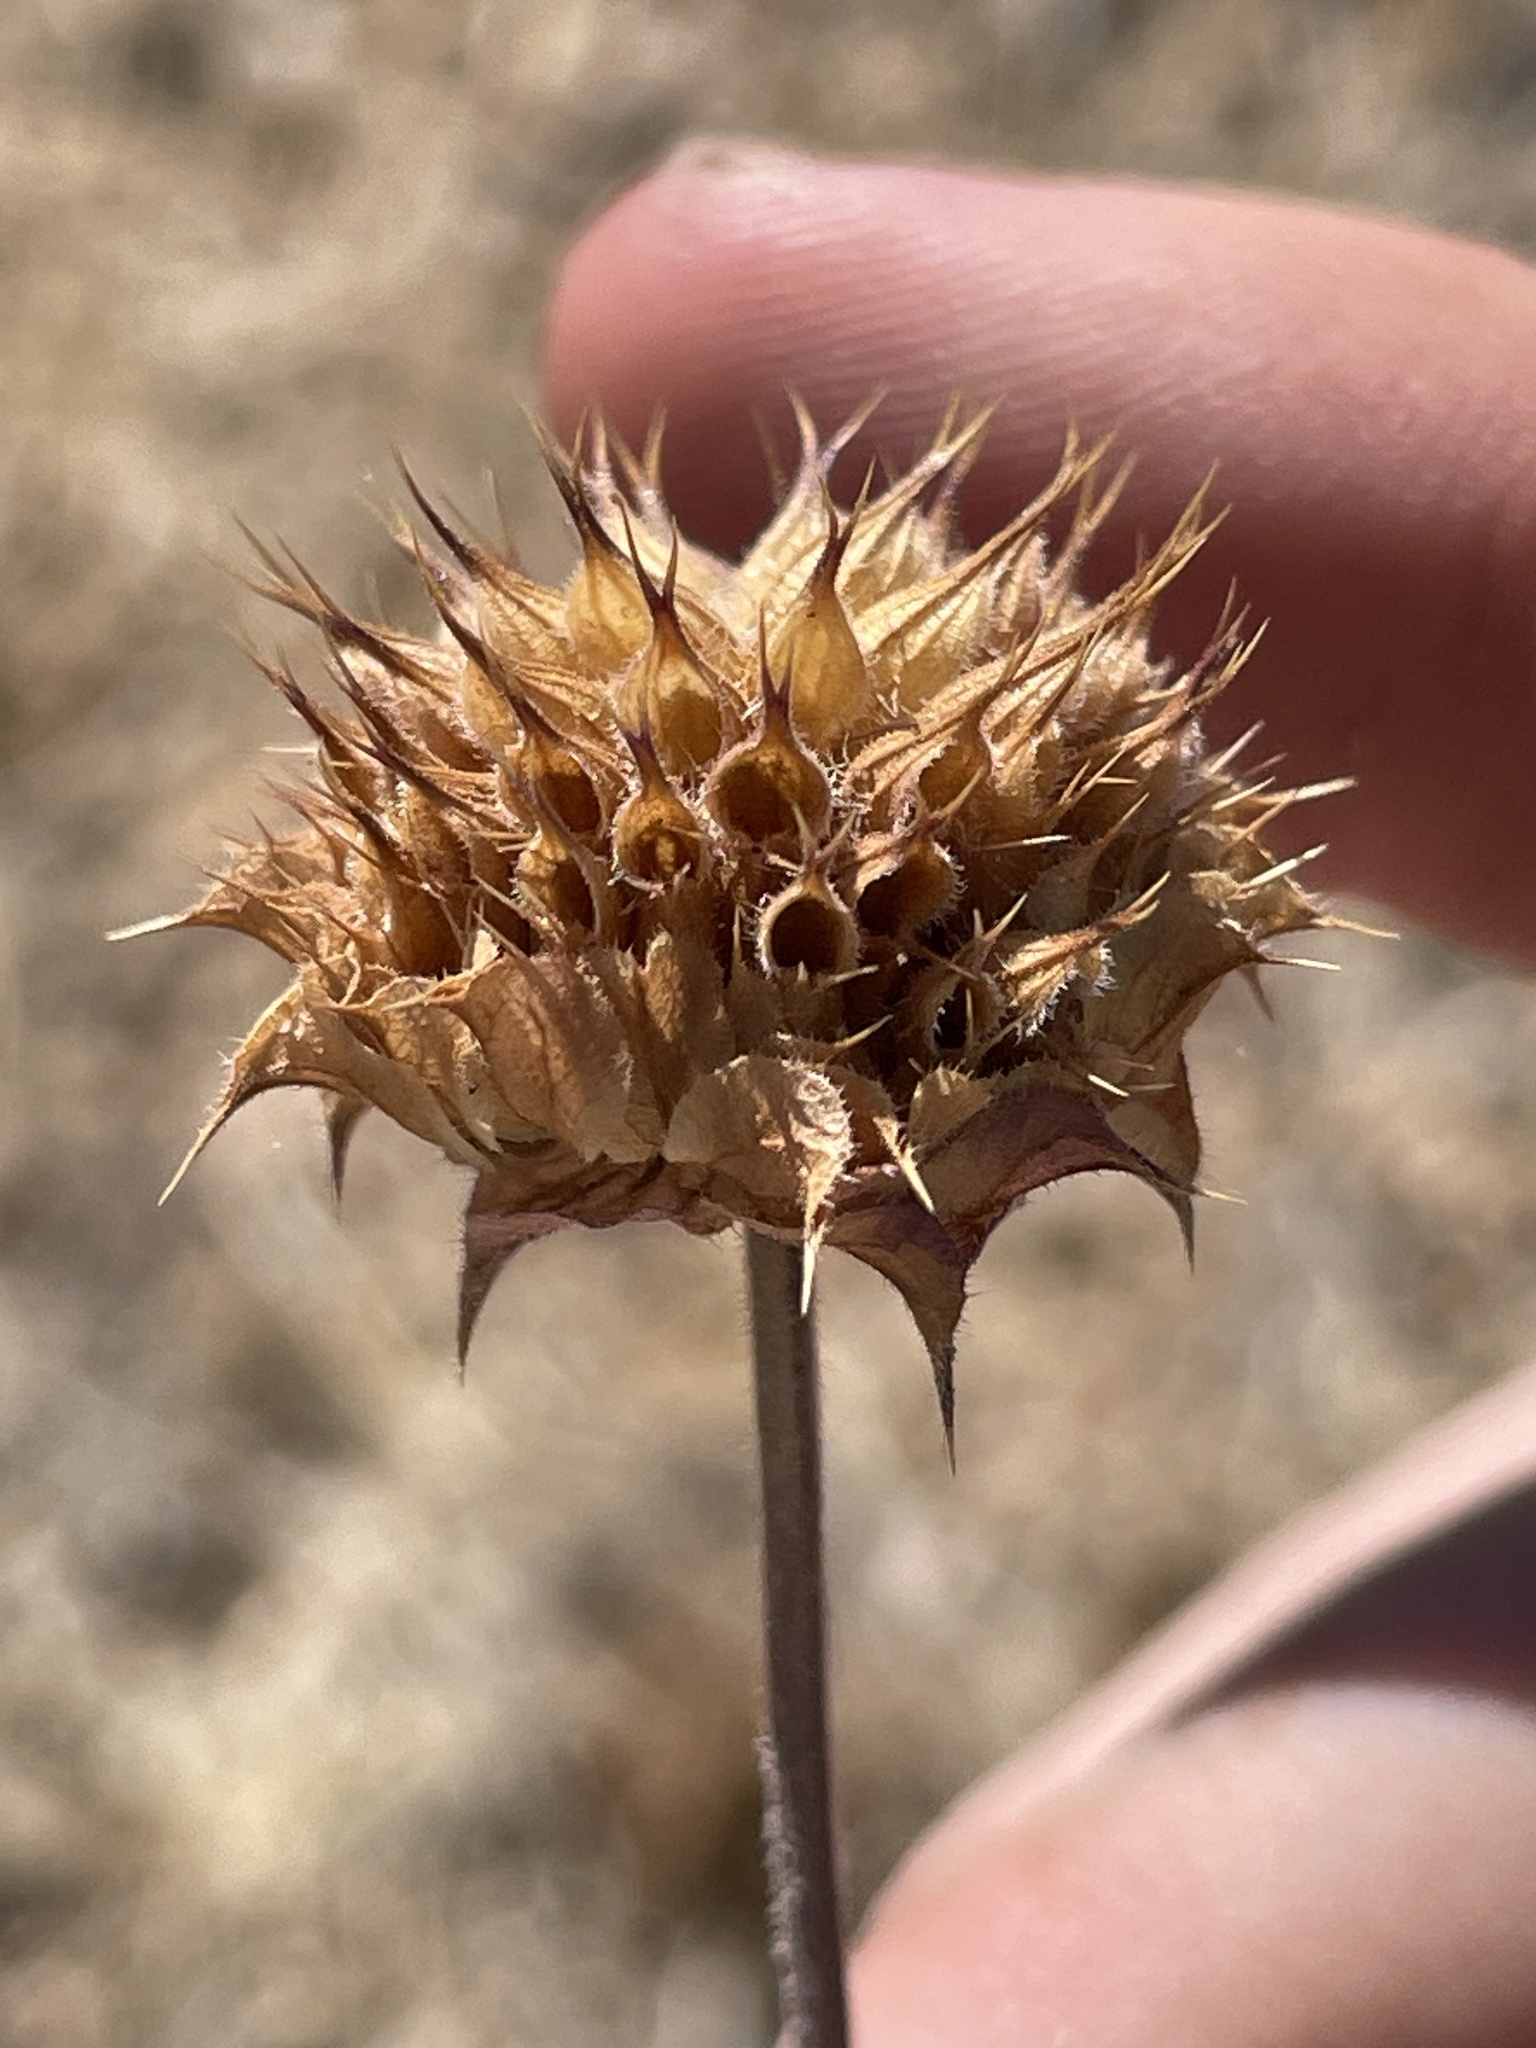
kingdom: Plantae
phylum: Tracheophyta
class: Magnoliopsida
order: Lamiales
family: Lamiaceae
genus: Salvia
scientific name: Salvia columbariae
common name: Chia
